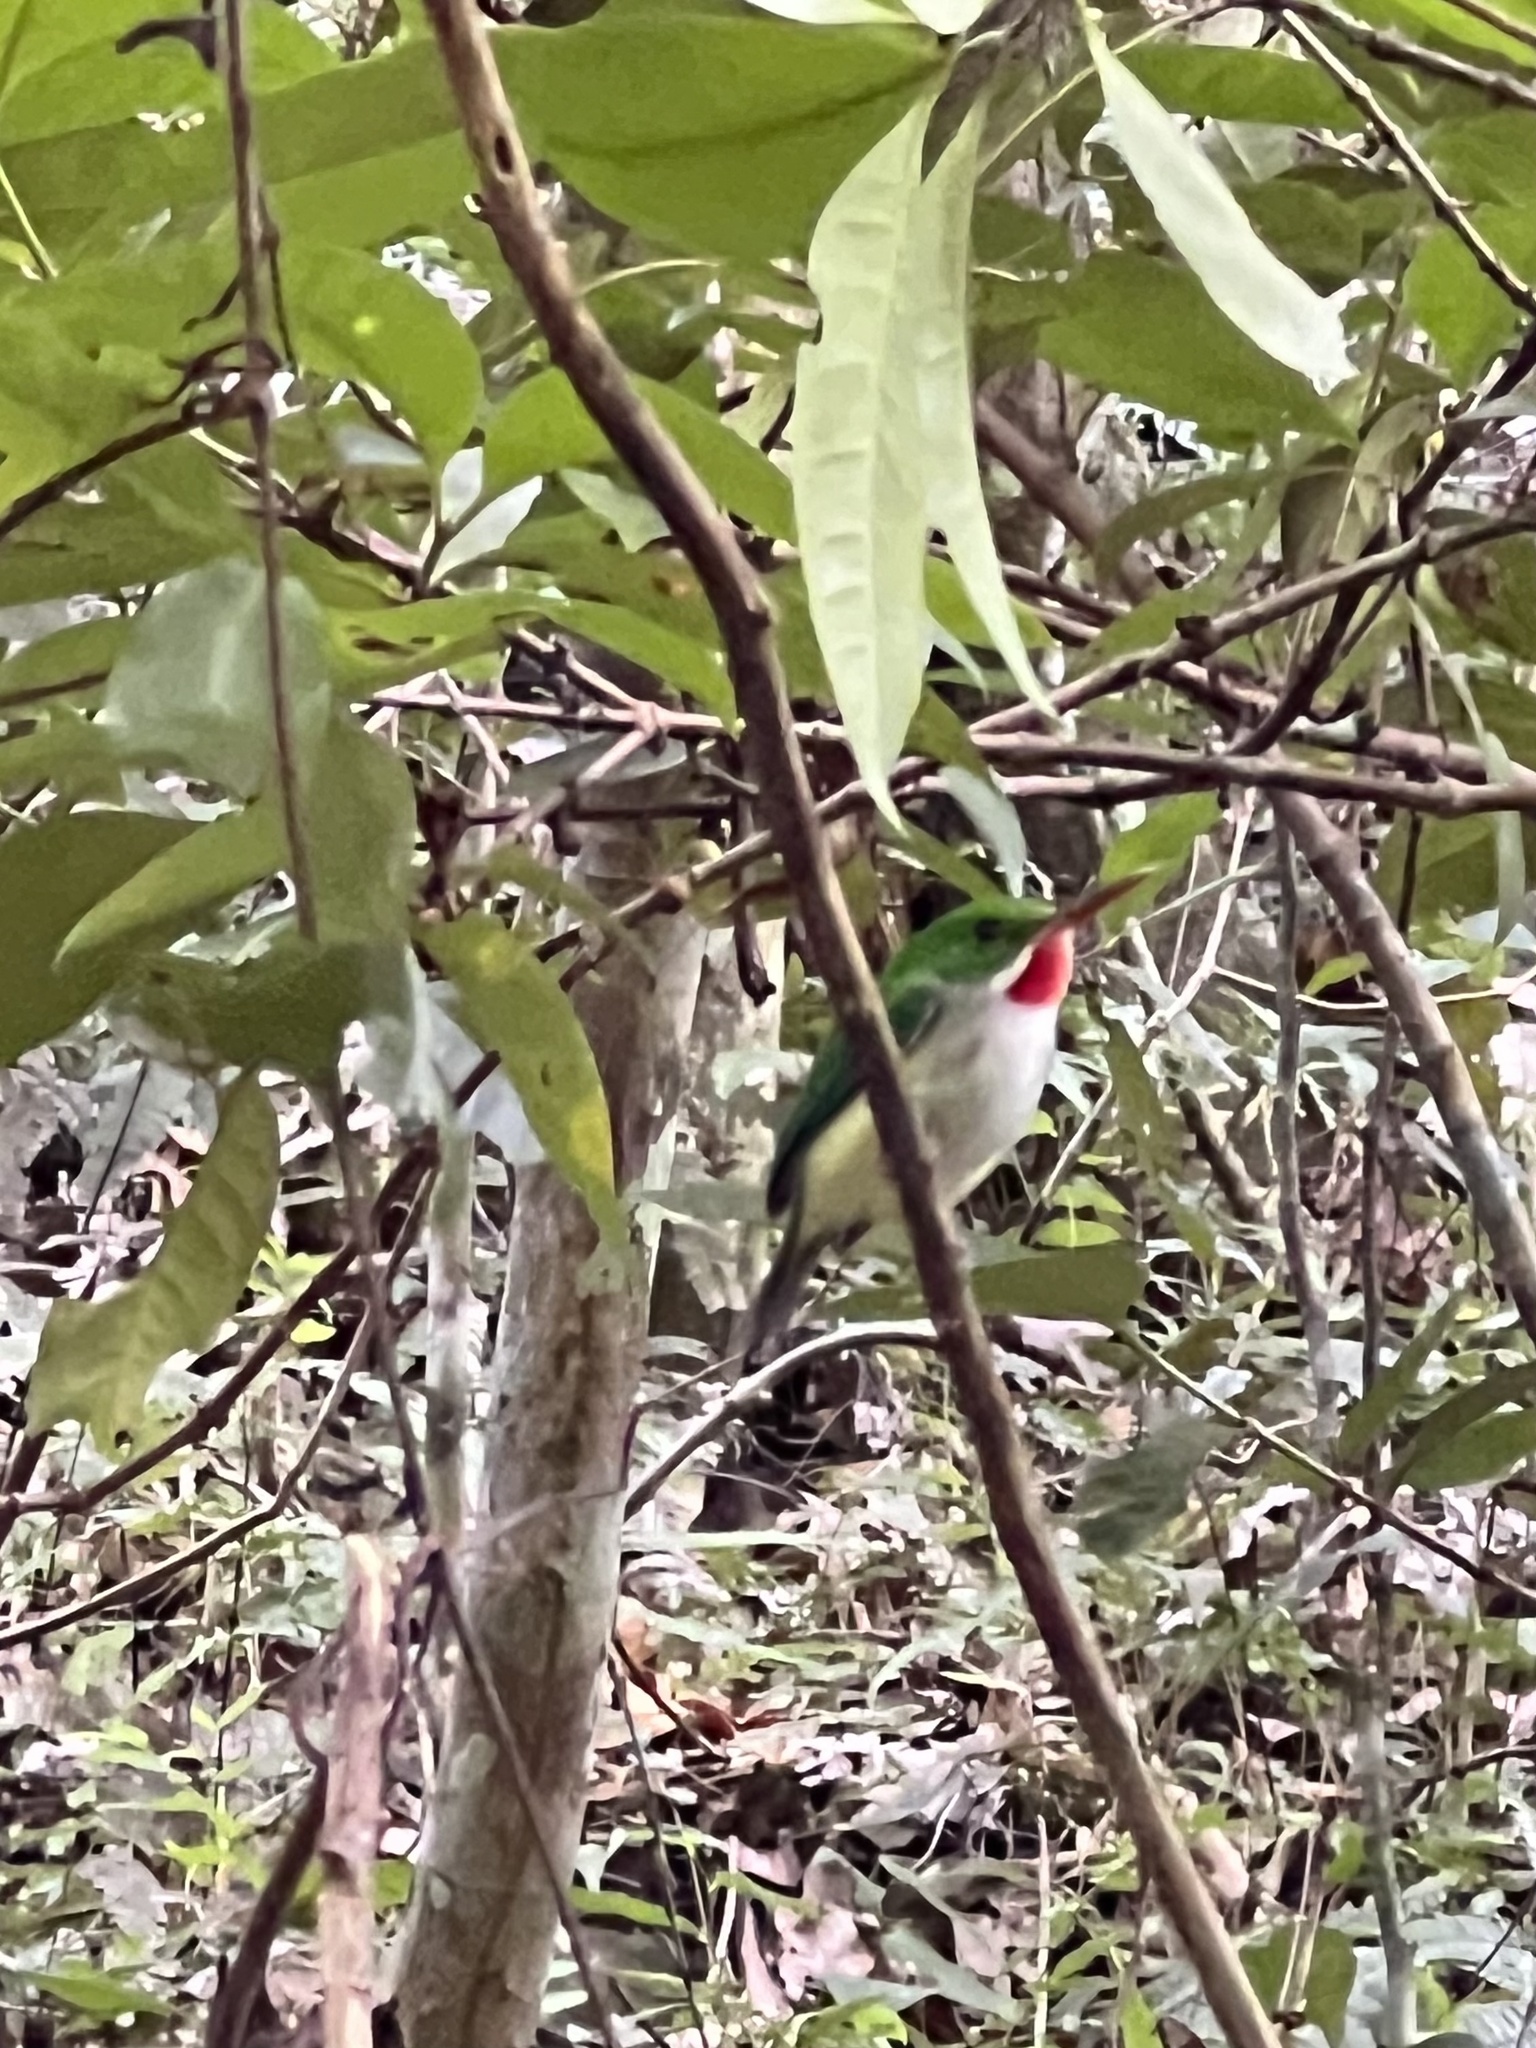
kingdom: Animalia
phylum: Chordata
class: Aves
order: Coraciiformes
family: Todidae
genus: Todus
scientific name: Todus mexicanus
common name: Puerto rican tody
